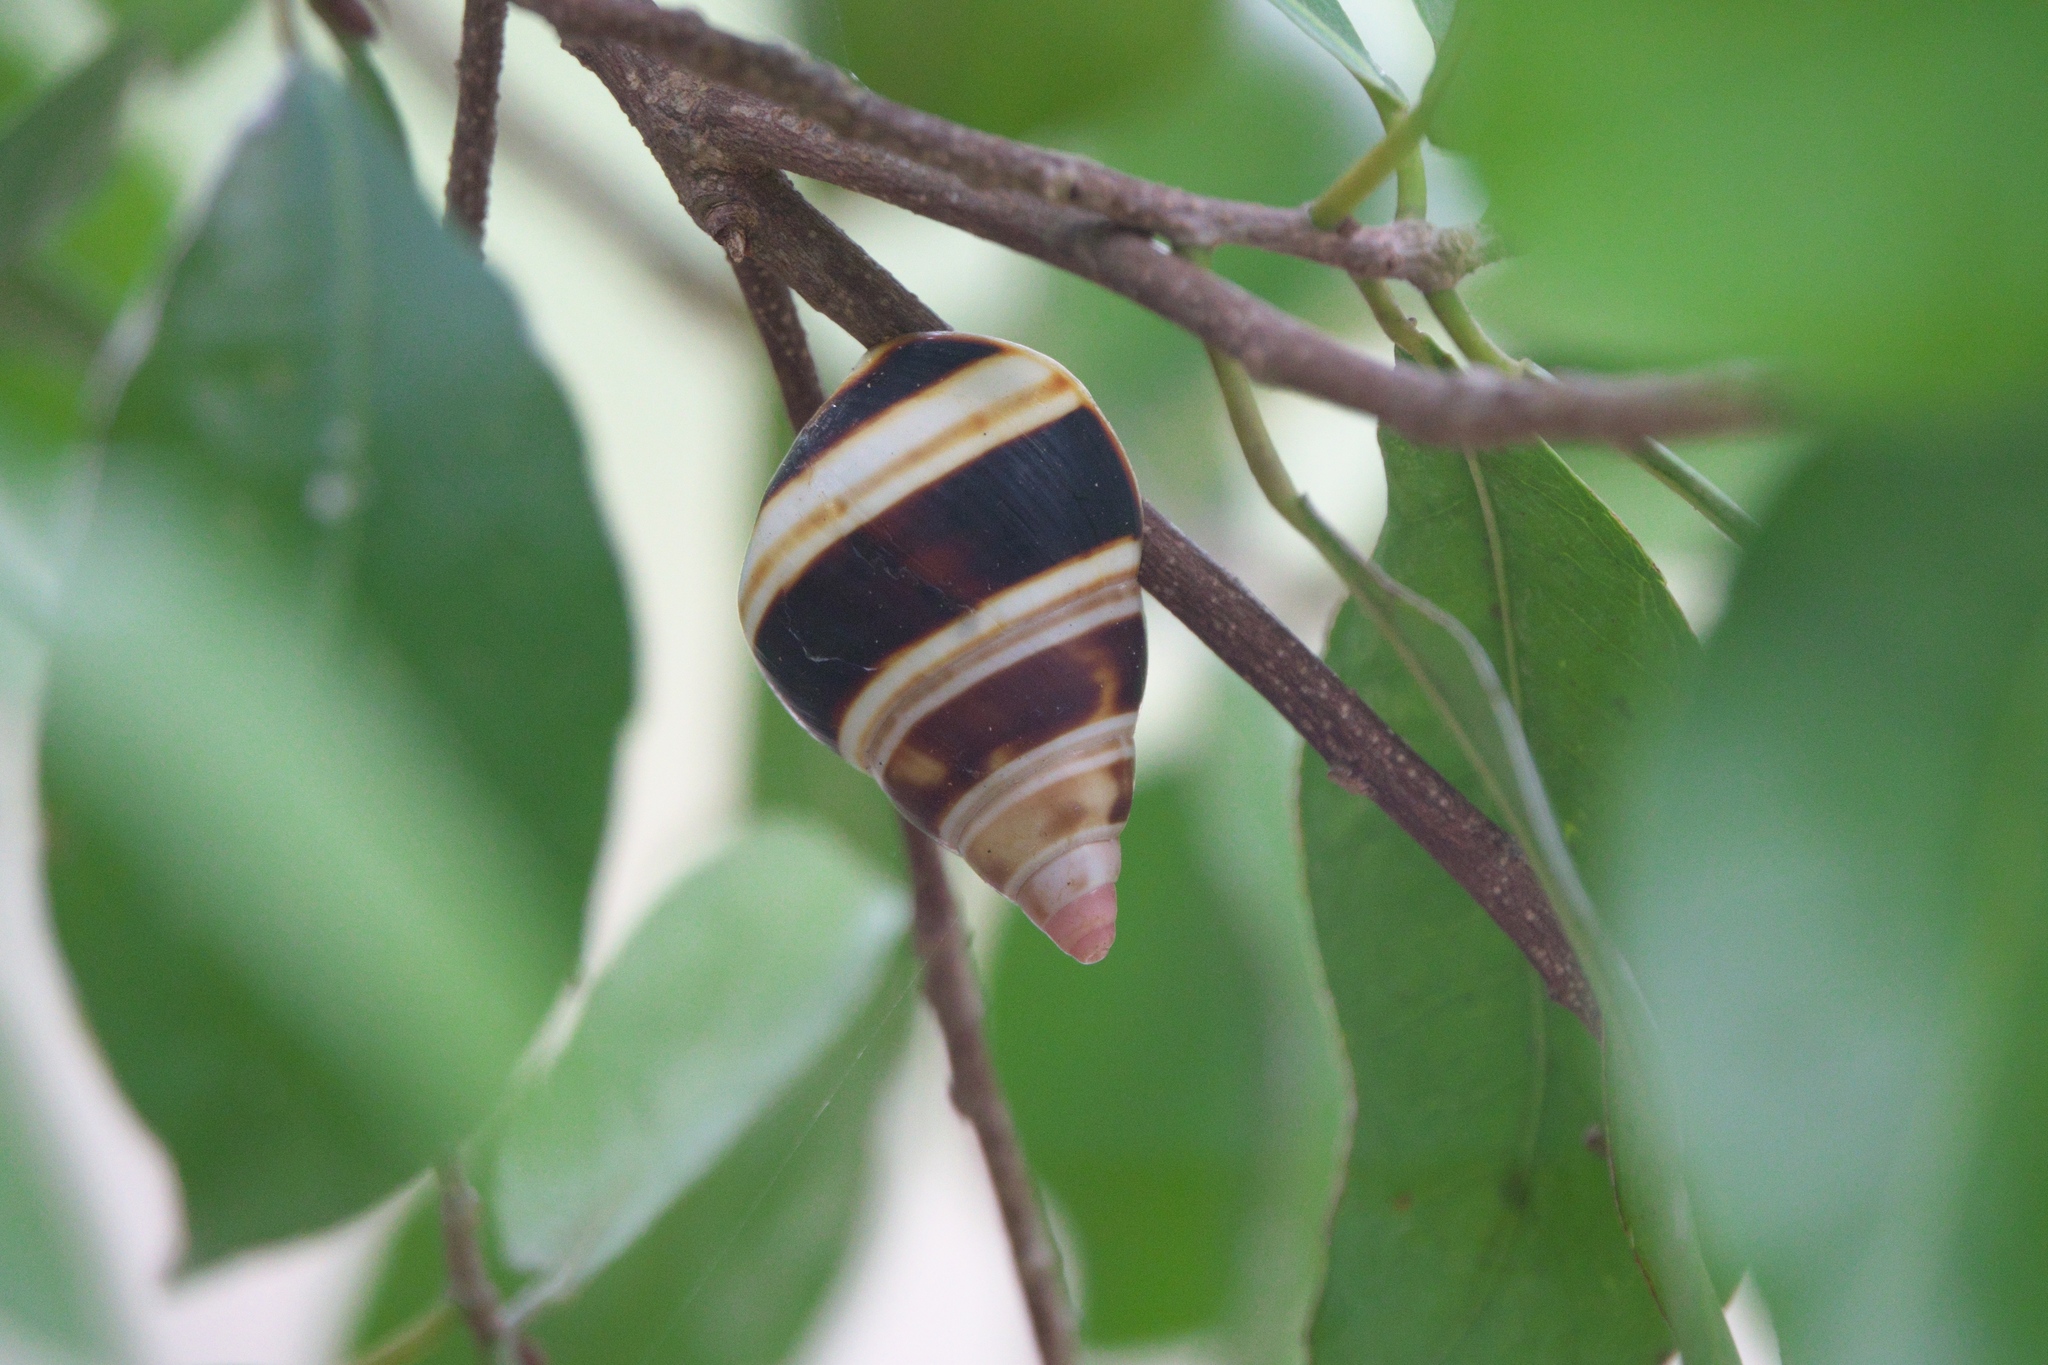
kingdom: Animalia
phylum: Mollusca
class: Gastropoda
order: Stylommatophora
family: Orthalicidae
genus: Liguus
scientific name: Liguus fasciatus
